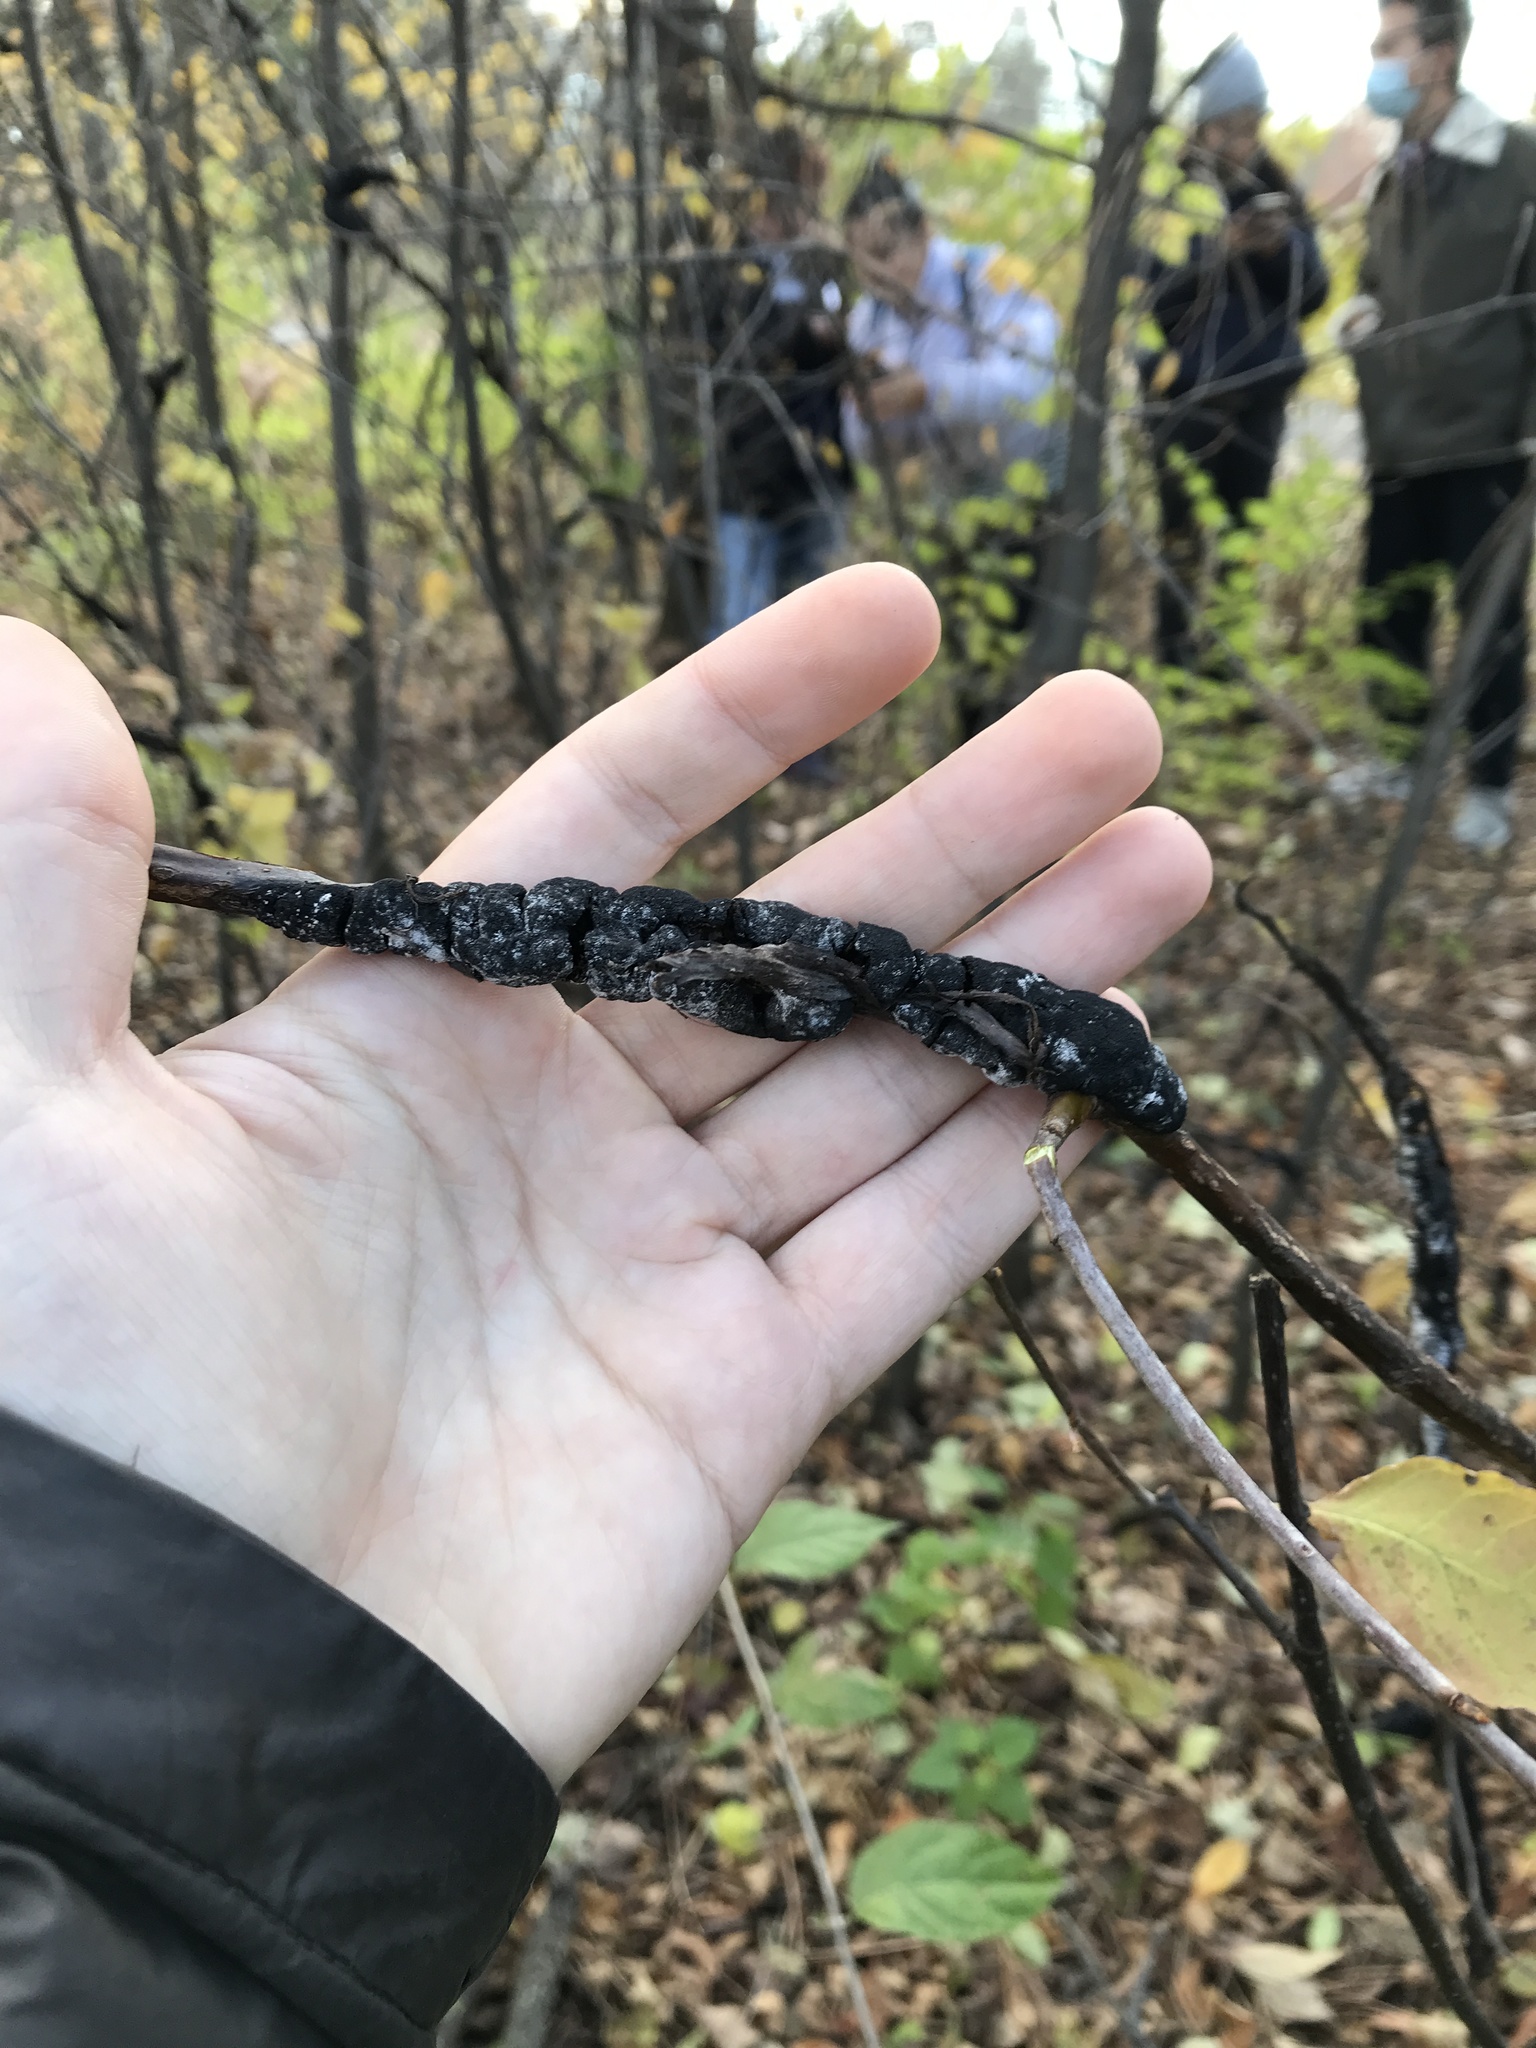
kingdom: Fungi
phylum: Ascomycota
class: Dothideomycetes
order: Venturiales
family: Venturiaceae
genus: Apiosporina
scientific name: Apiosporina morbosa
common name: Black knot
